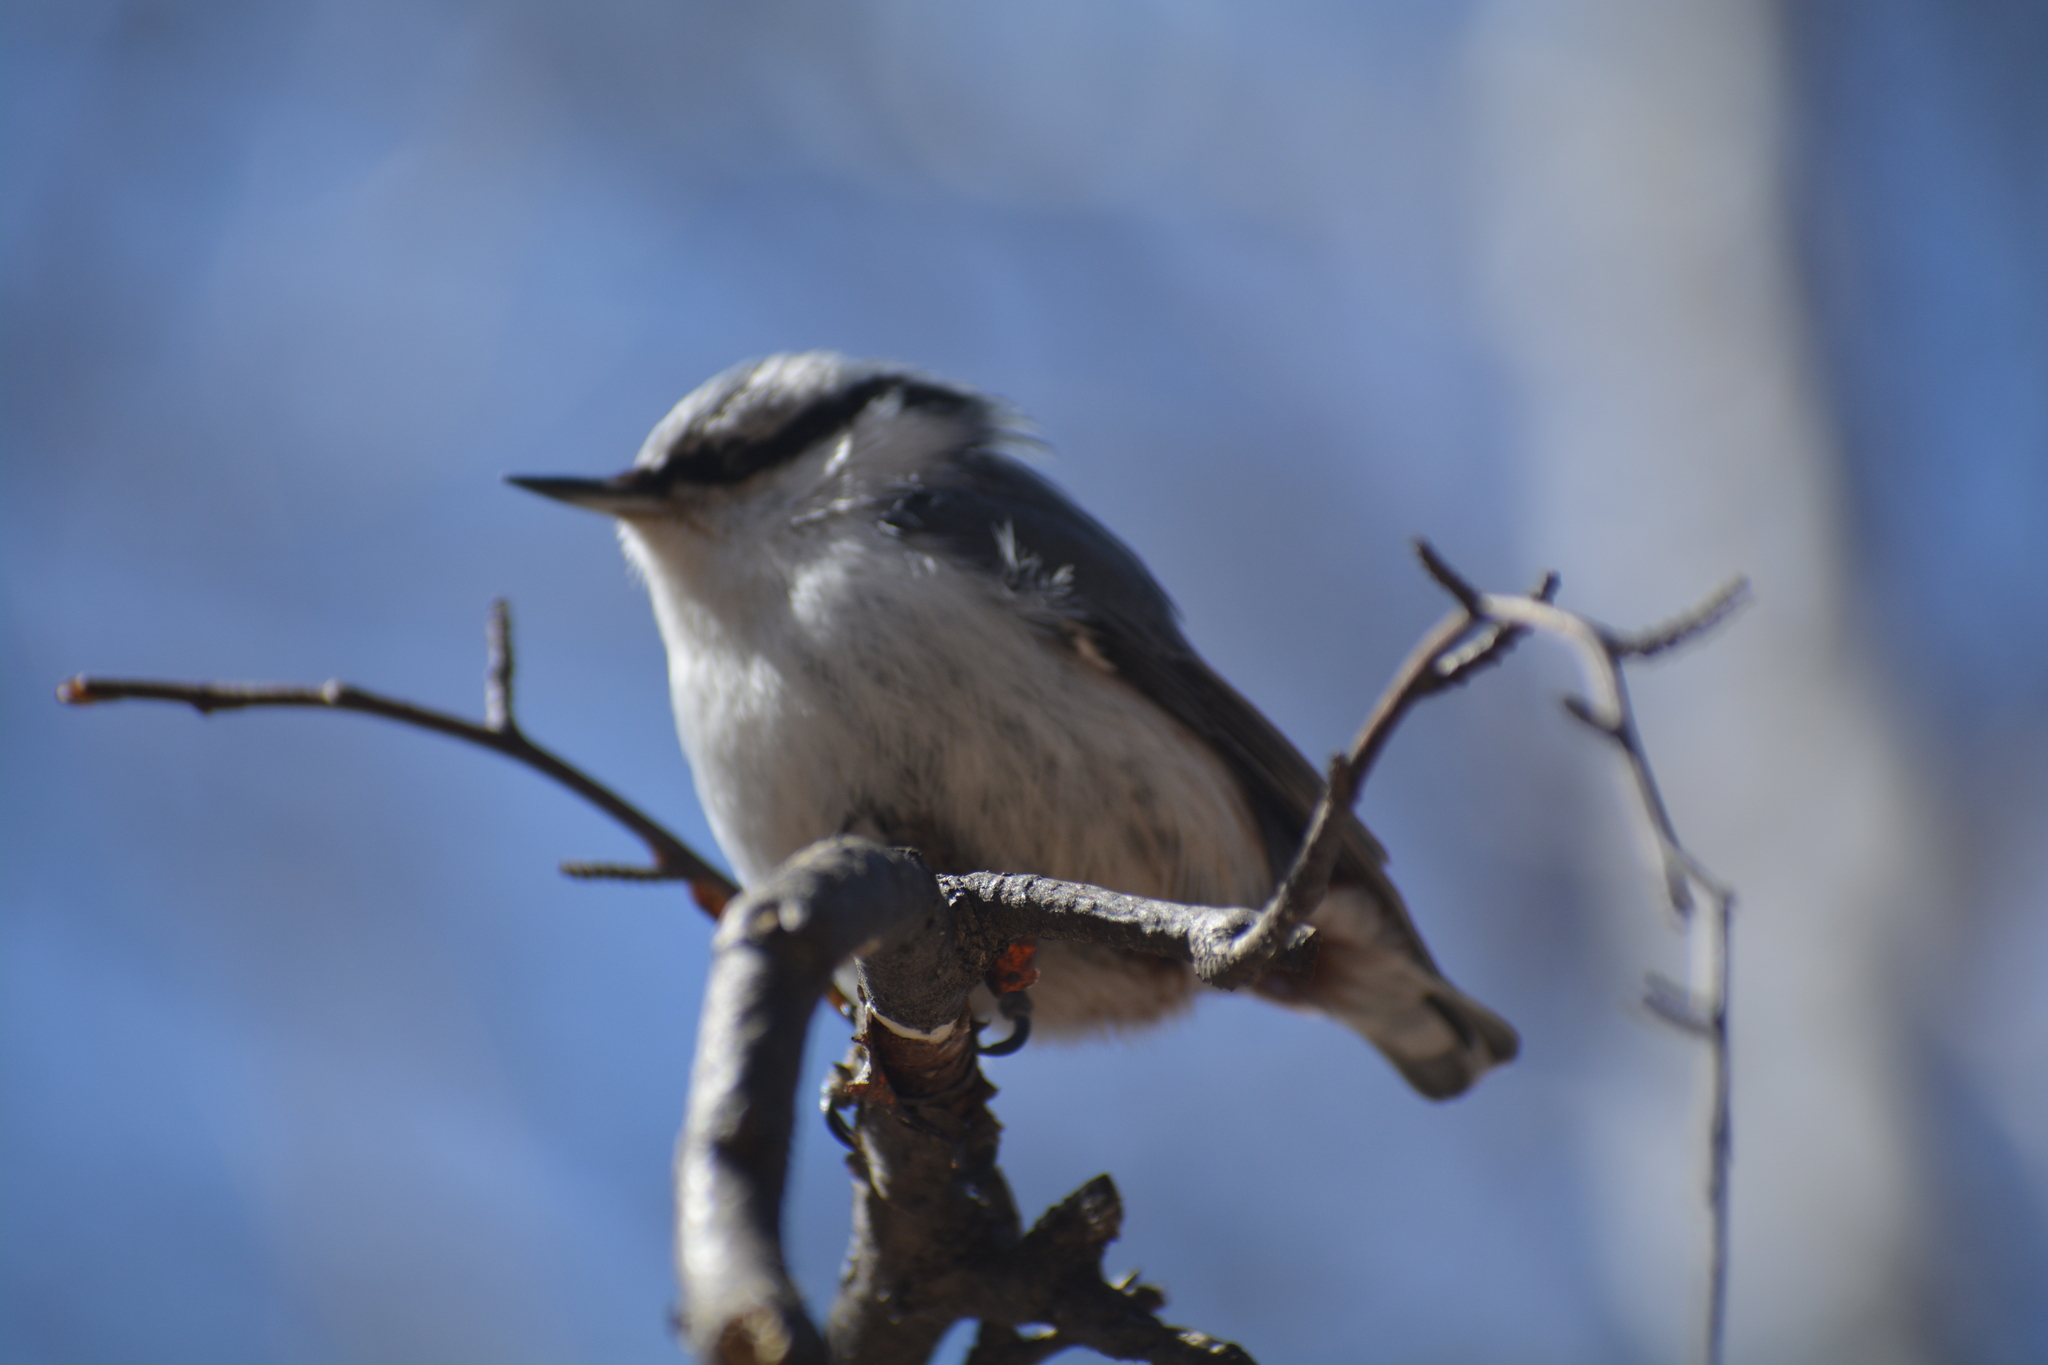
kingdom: Animalia
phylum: Chordata
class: Aves
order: Passeriformes
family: Sittidae
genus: Sitta
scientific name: Sitta europaea
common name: Eurasian nuthatch
